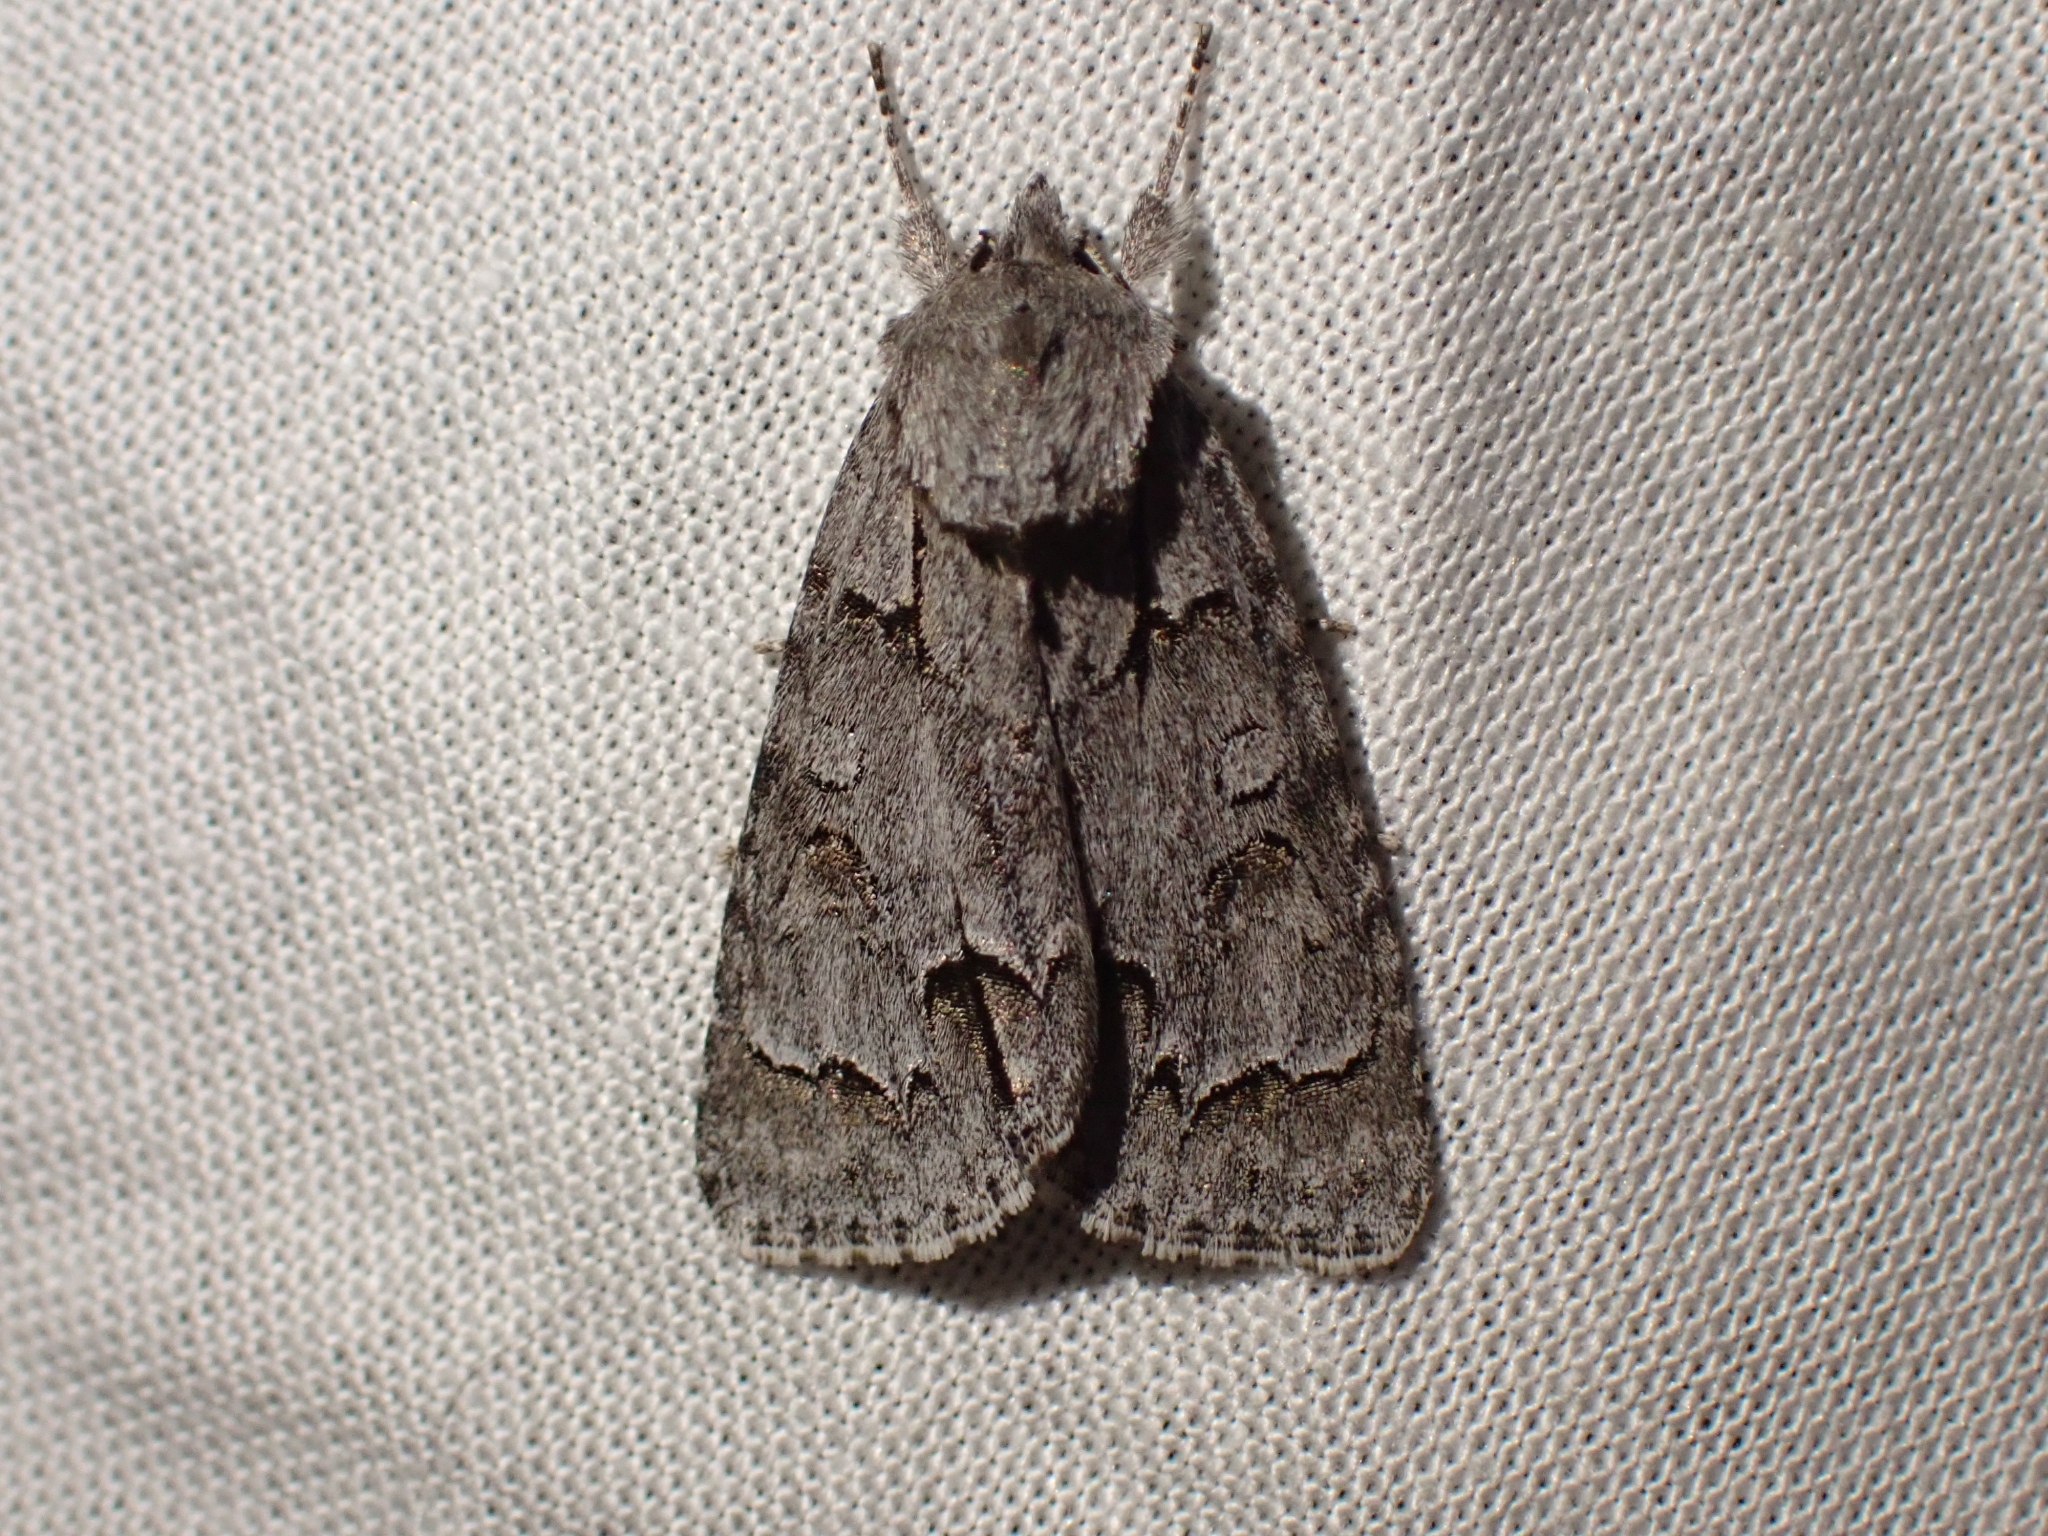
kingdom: Animalia
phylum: Arthropoda
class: Insecta
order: Lepidoptera
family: Noctuidae
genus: Acronicta
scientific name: Acronicta grisea
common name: Gray dagger
